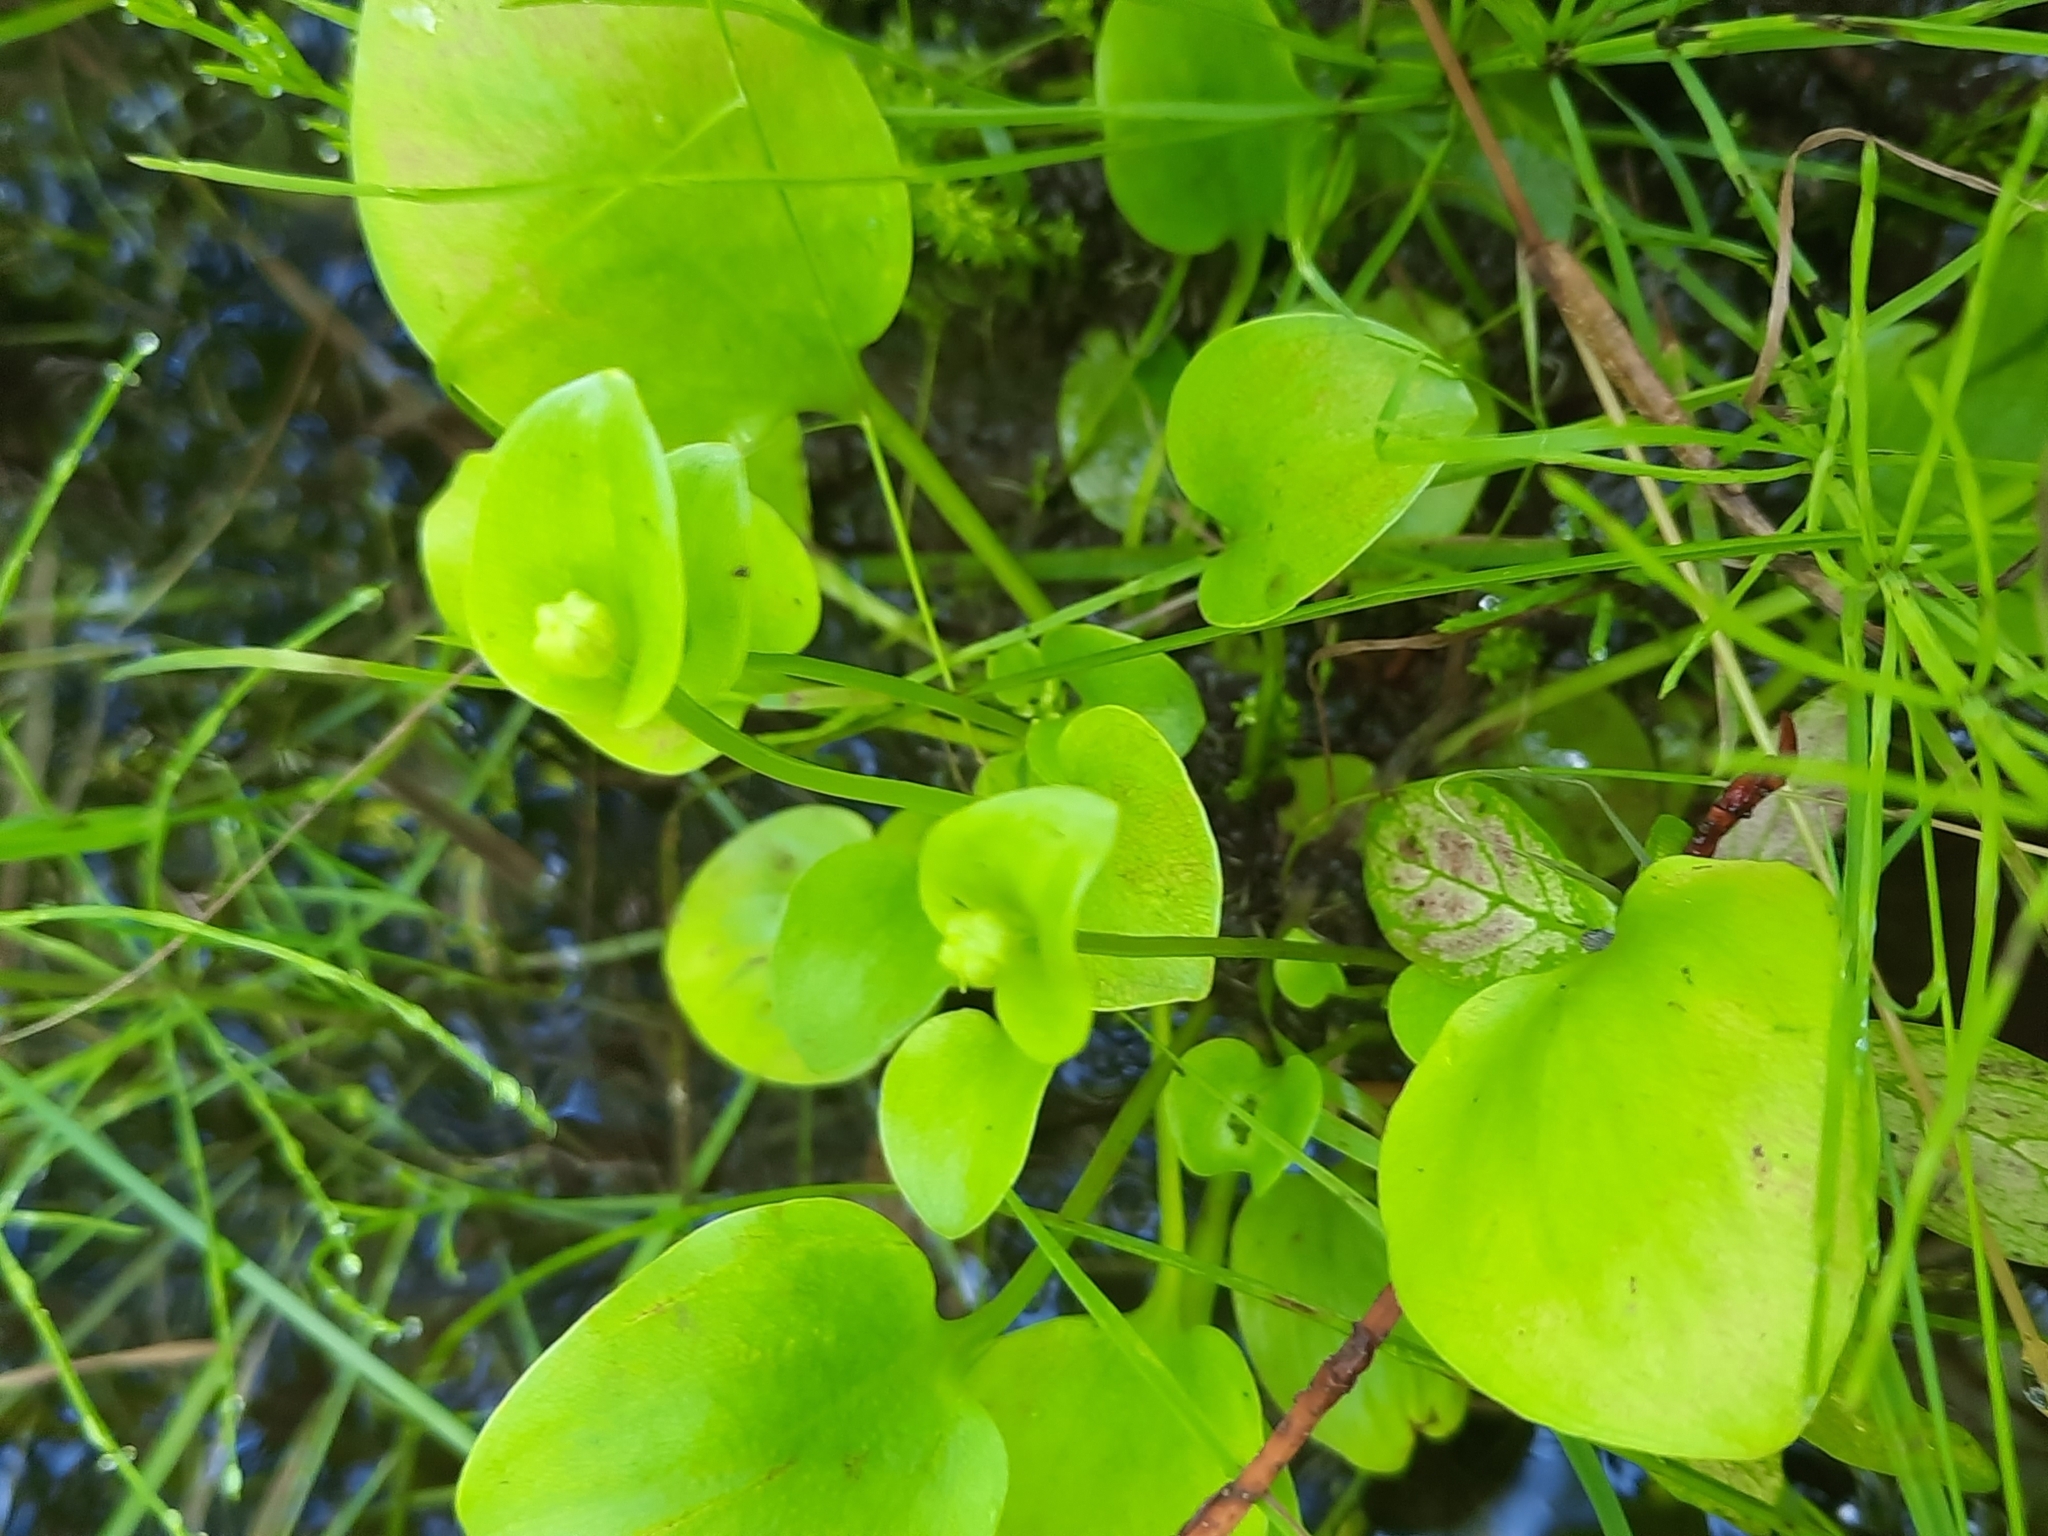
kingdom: Plantae
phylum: Tracheophyta
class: Magnoliopsida
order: Celastrales
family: Parnassiaceae
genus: Parnassia
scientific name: Parnassia glauca
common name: American grass-of-parnassus
